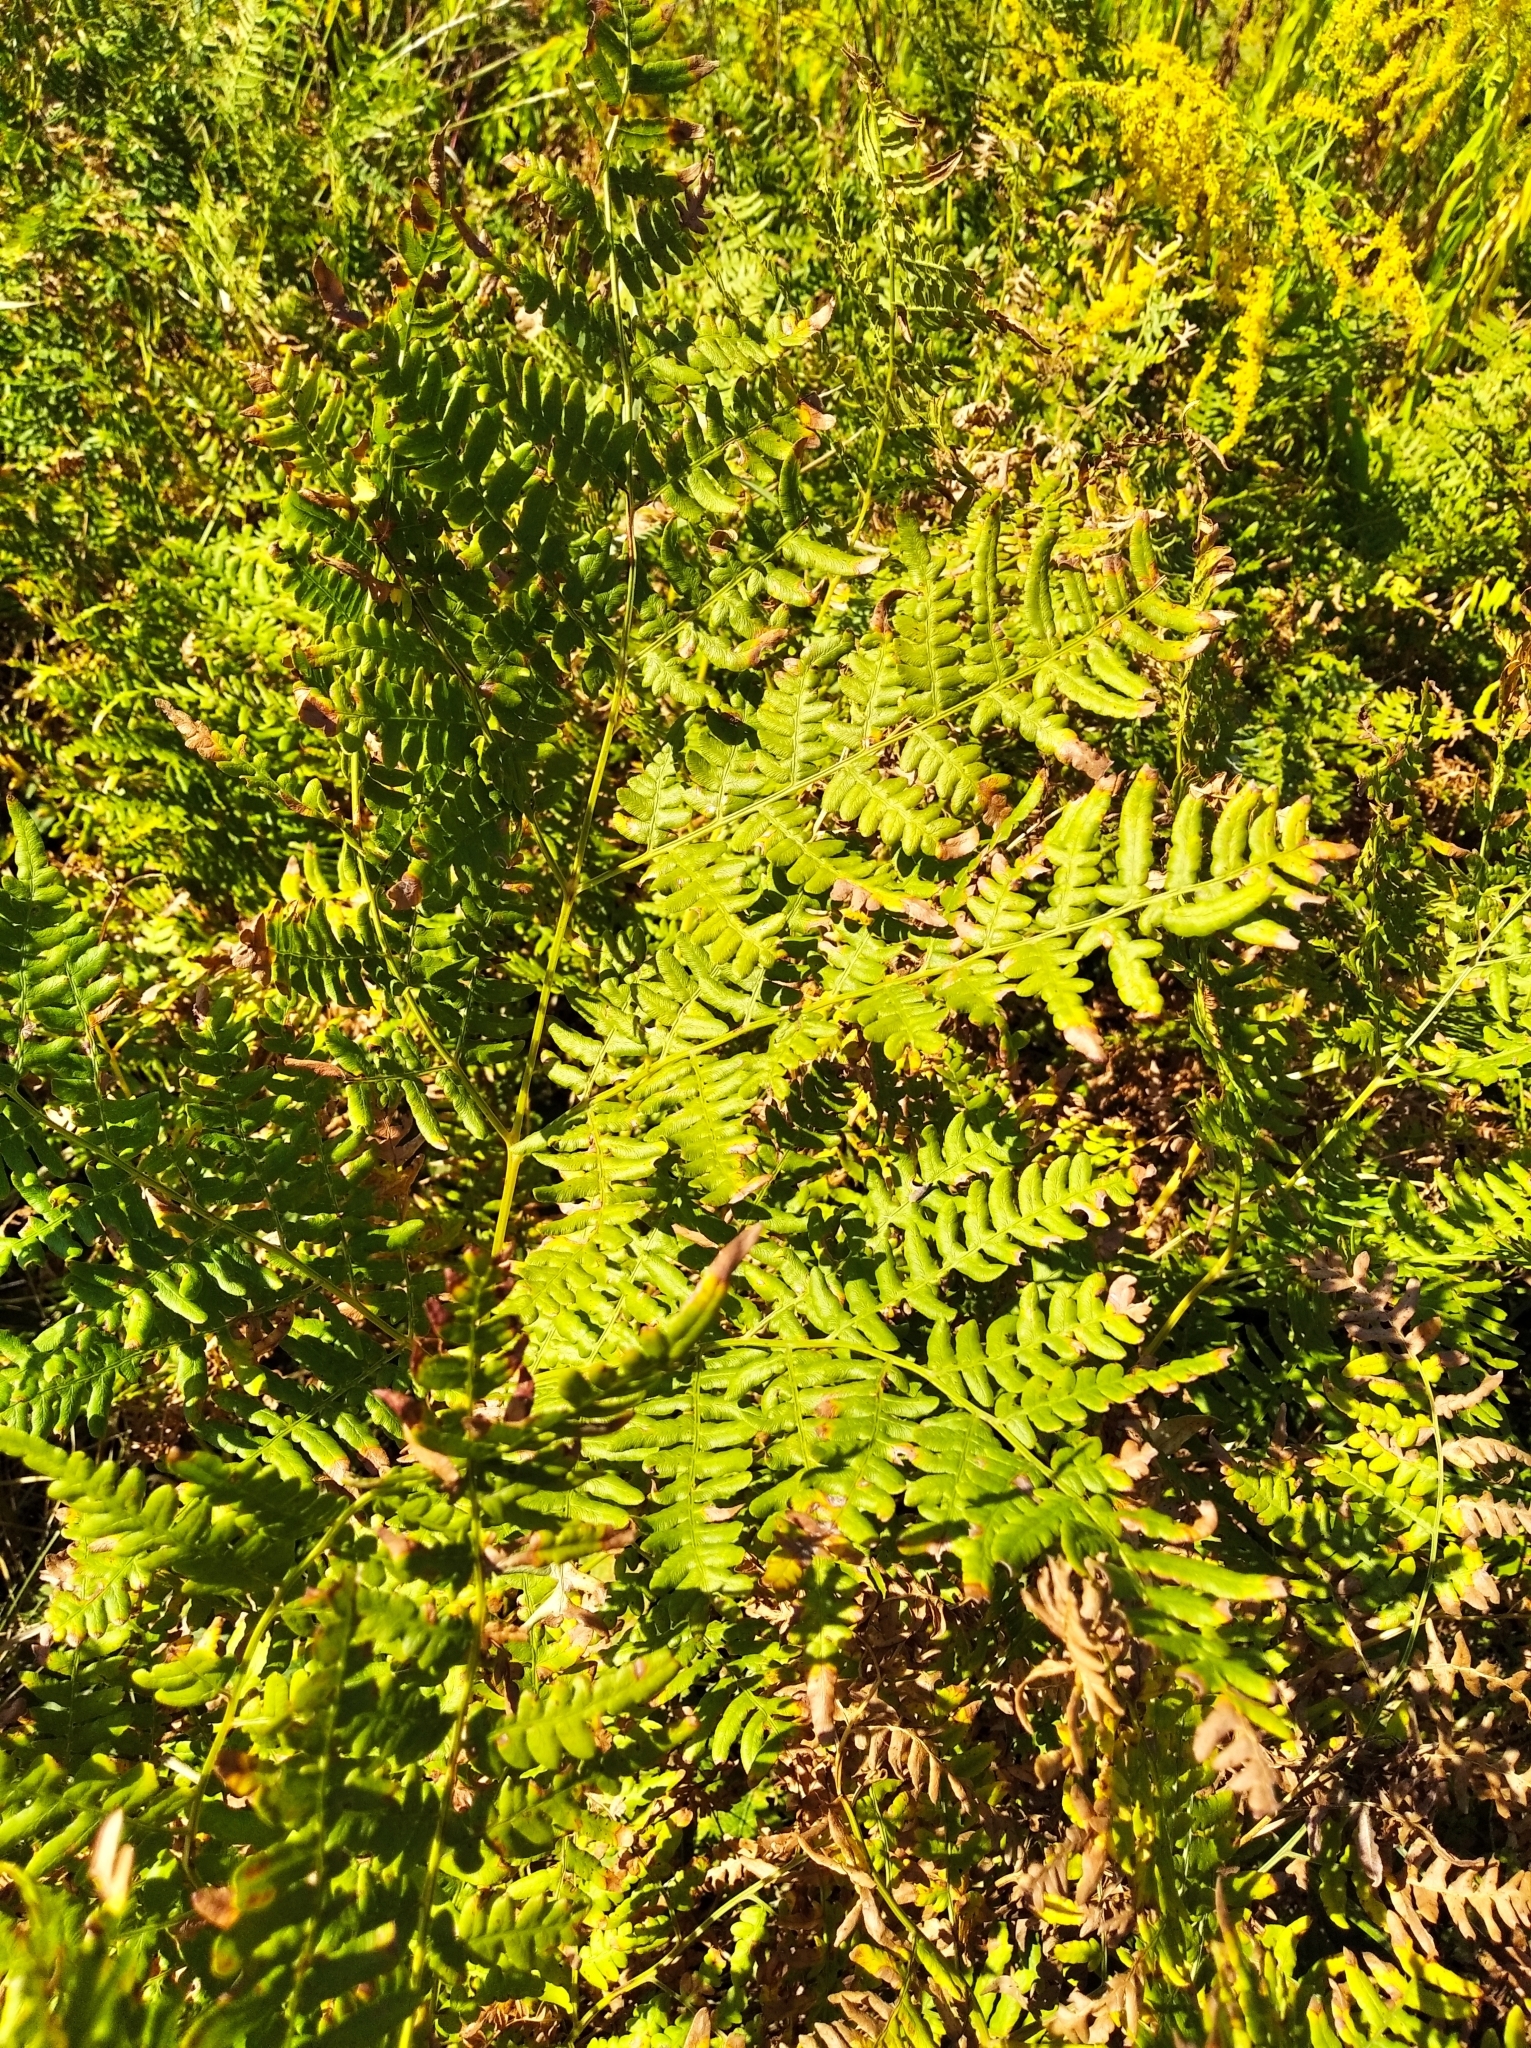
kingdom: Plantae
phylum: Tracheophyta
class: Polypodiopsida
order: Polypodiales
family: Dennstaedtiaceae
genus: Pteridium
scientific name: Pteridium aquilinum
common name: Bracken
